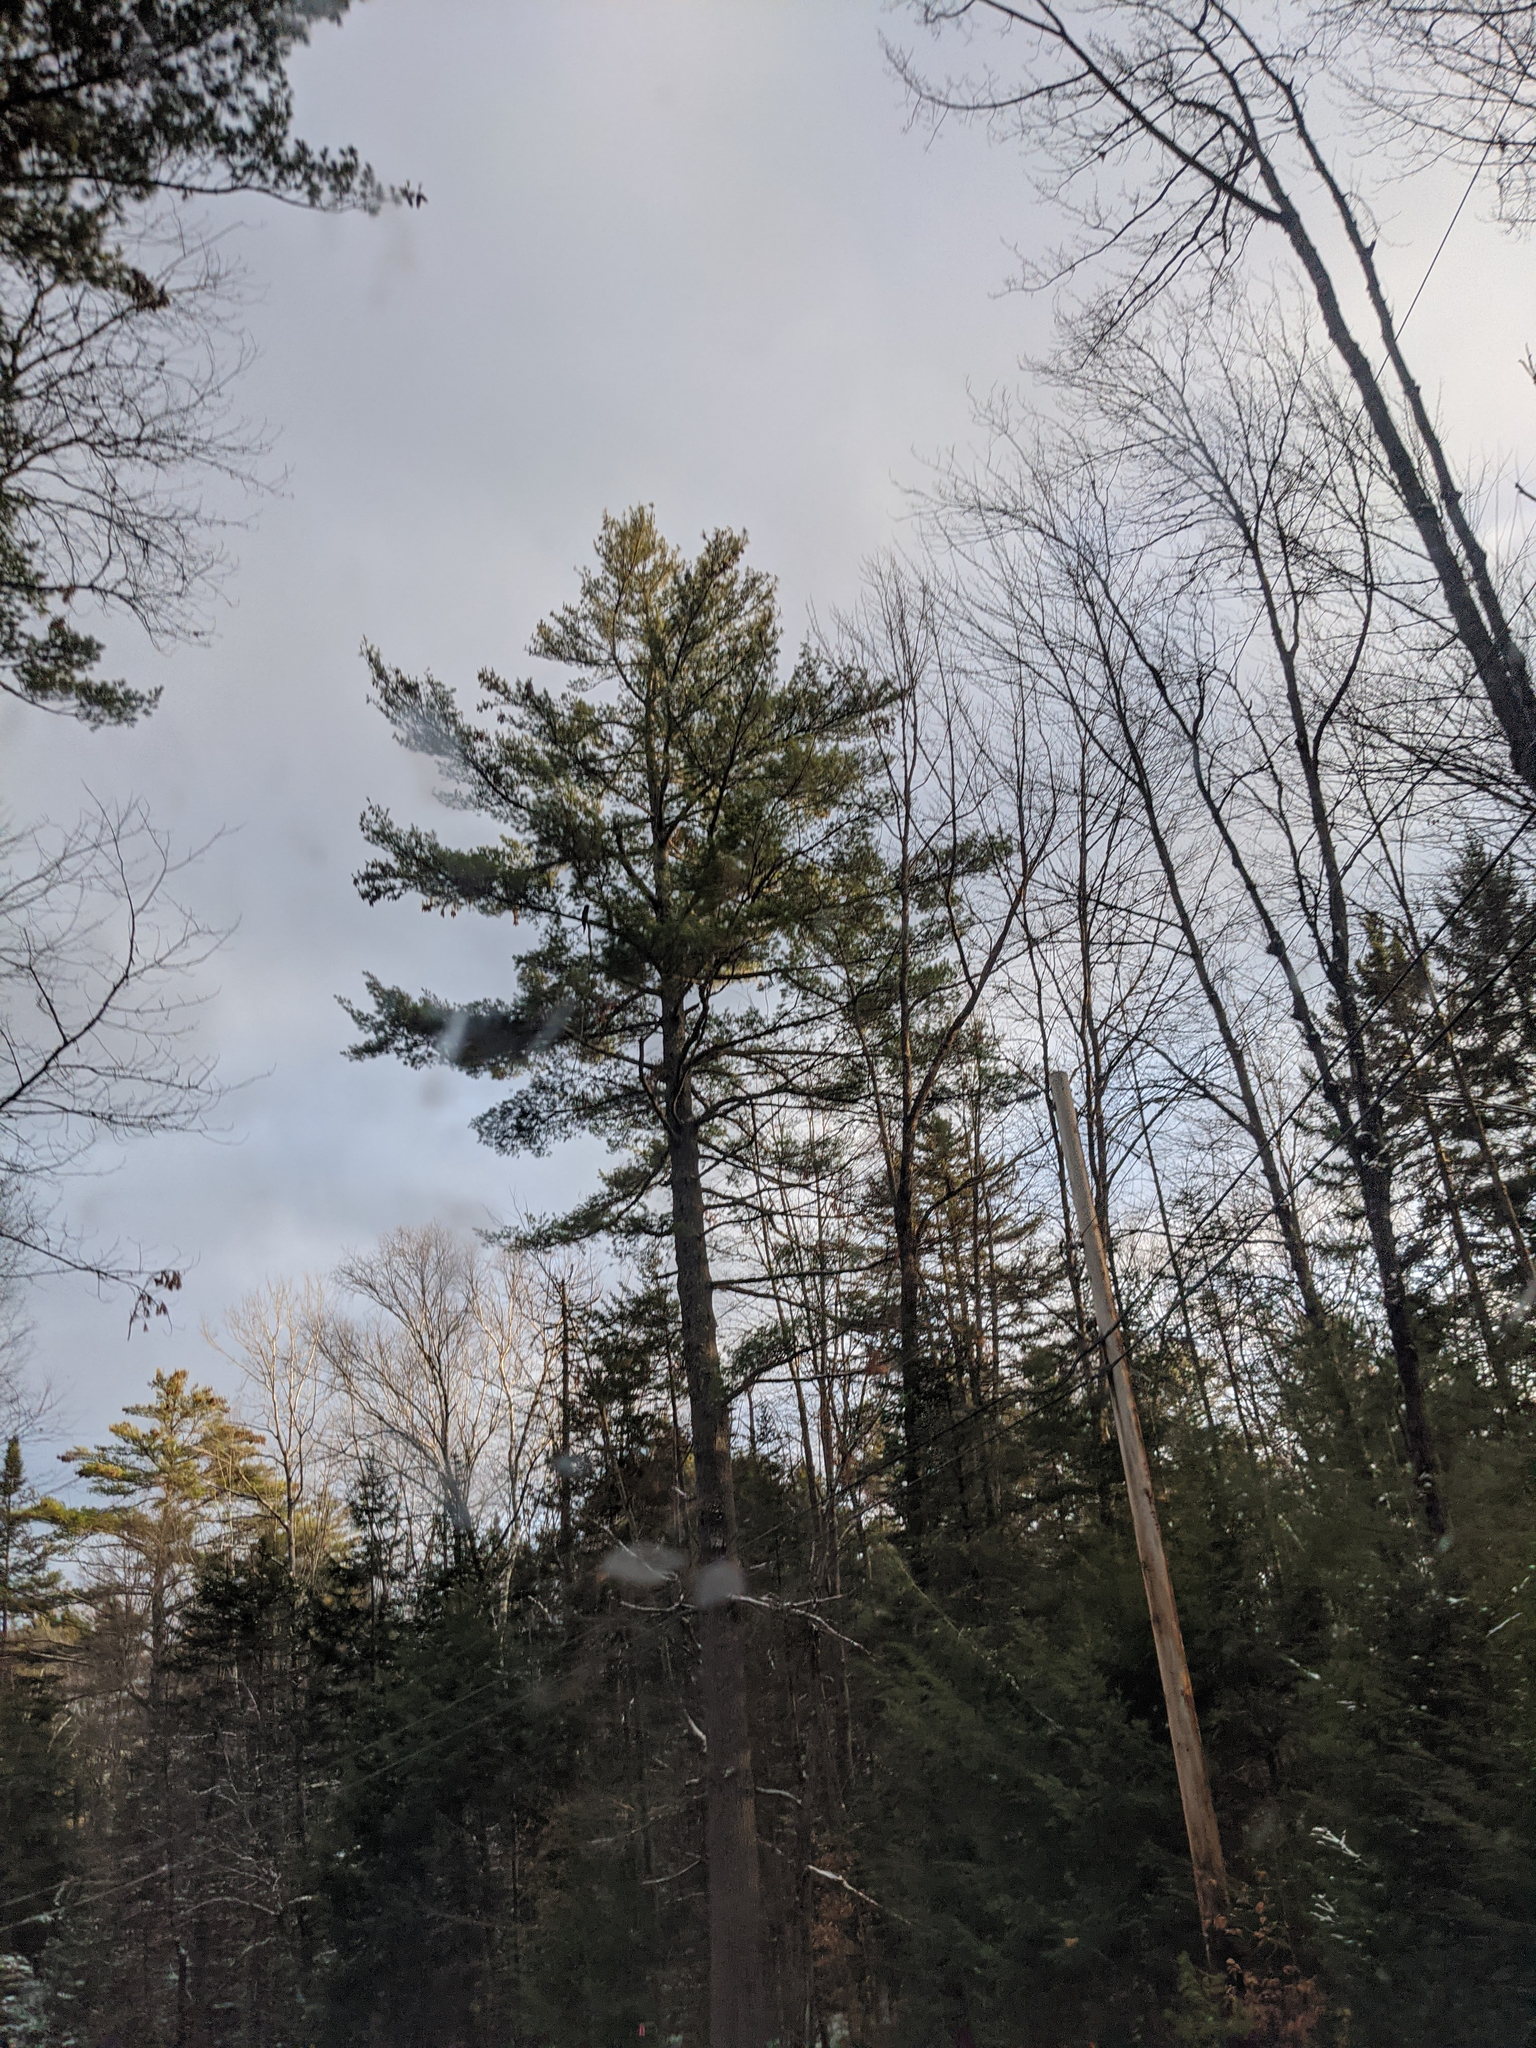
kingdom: Plantae
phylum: Tracheophyta
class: Pinopsida
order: Pinales
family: Pinaceae
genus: Pinus
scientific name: Pinus strobus
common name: Weymouth pine
